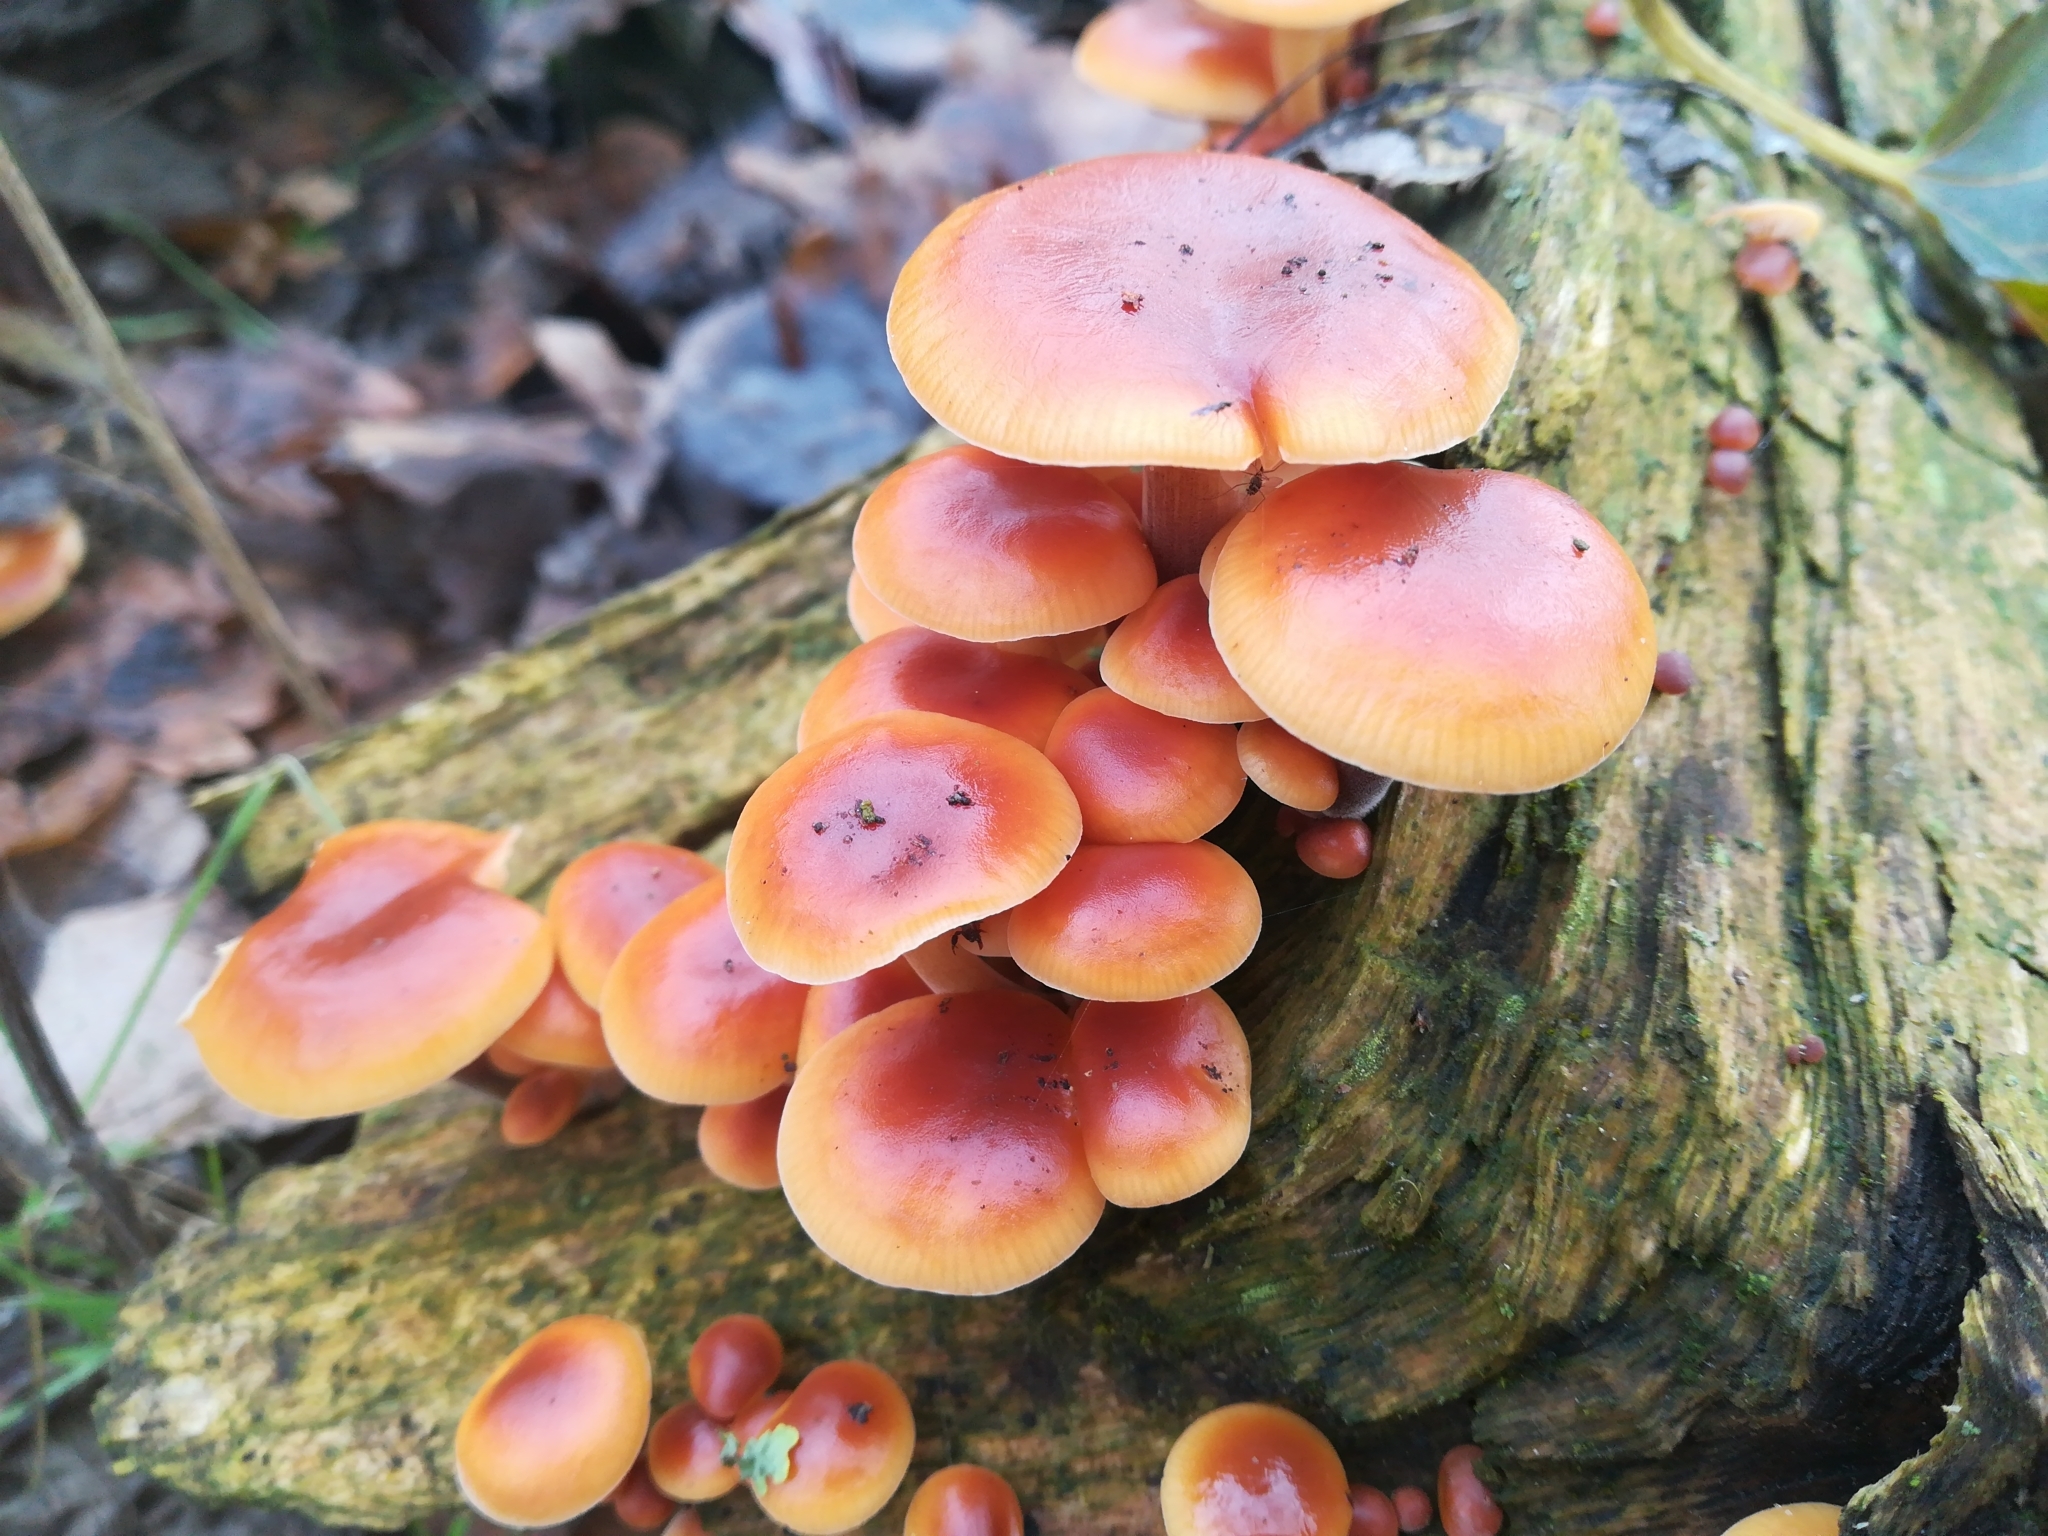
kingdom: Fungi
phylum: Basidiomycota
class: Agaricomycetes
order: Agaricales
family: Physalacriaceae
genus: Flammulina
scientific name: Flammulina
